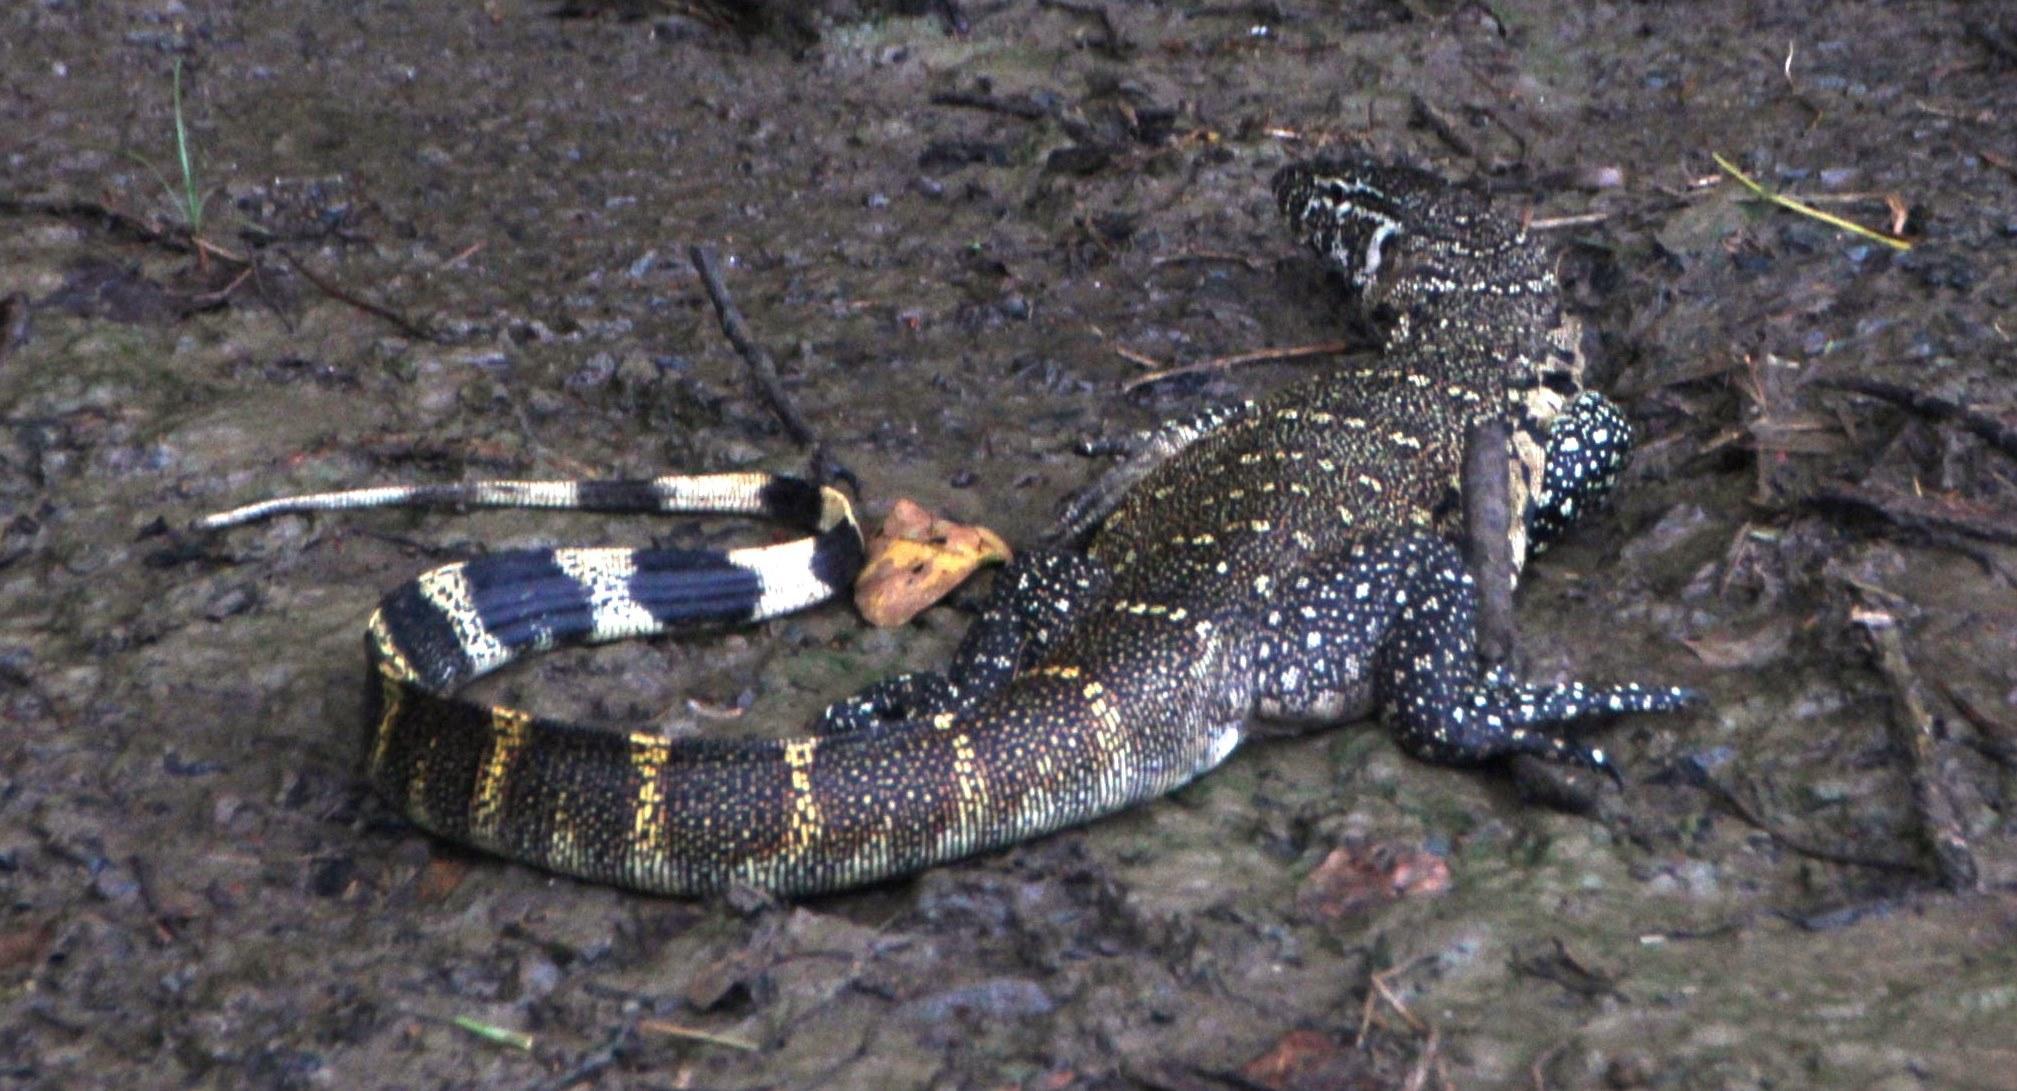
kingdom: Animalia
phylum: Chordata
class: Squamata
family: Varanidae
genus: Varanus
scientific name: Varanus niloticus
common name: Nile monitor
